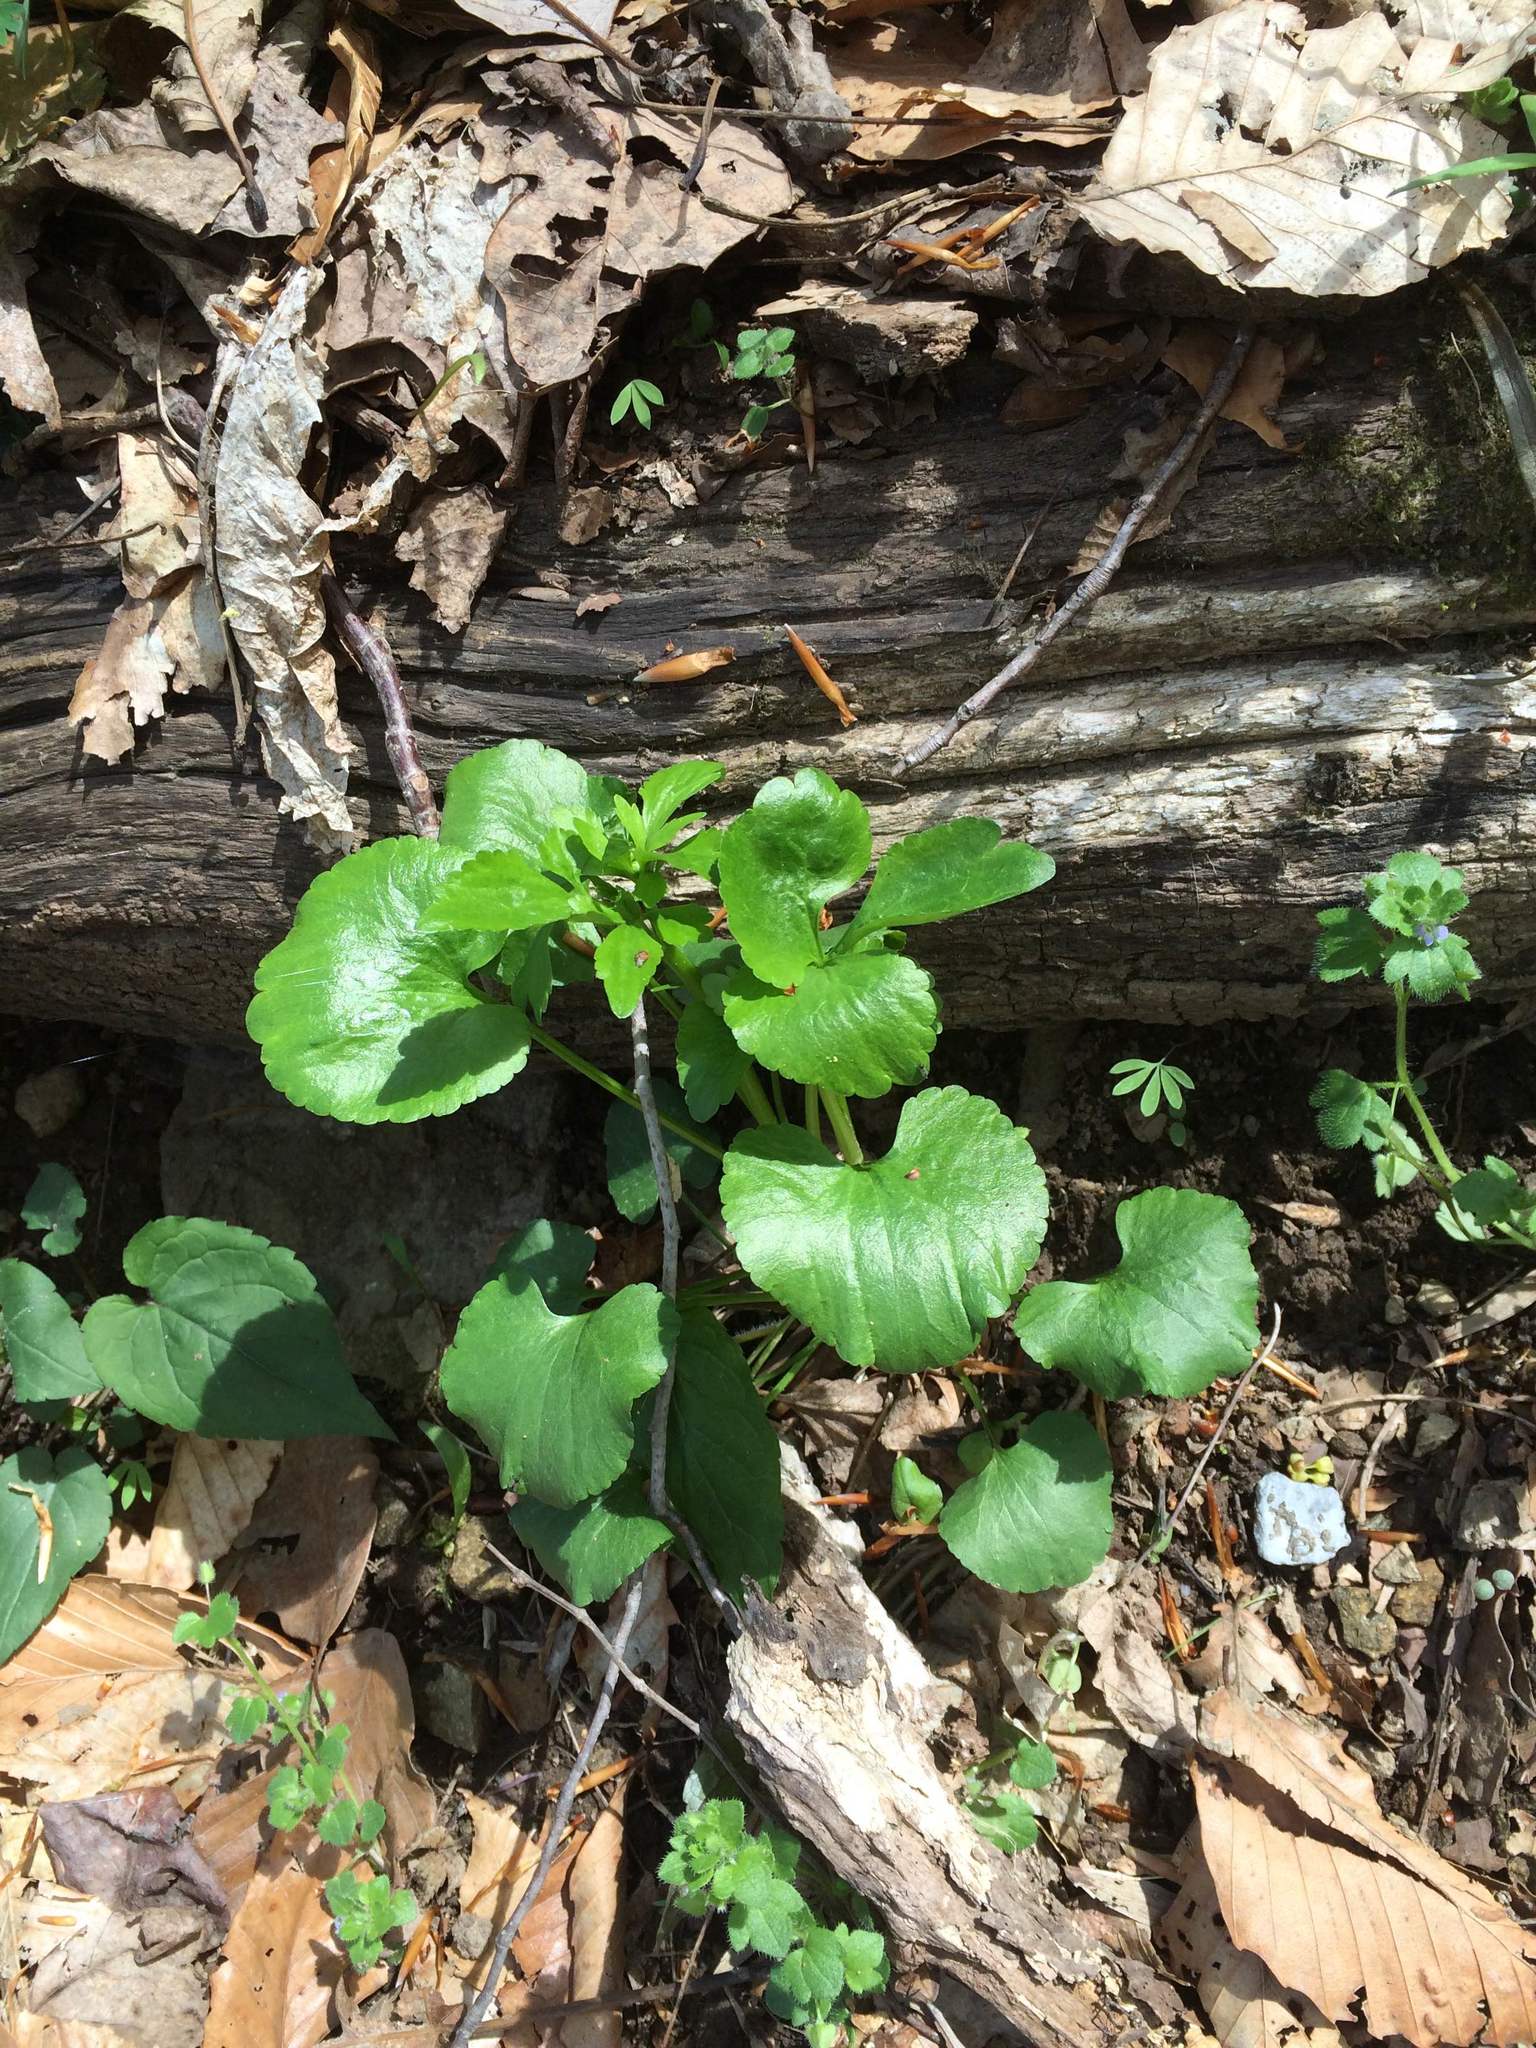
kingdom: Plantae
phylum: Tracheophyta
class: Magnoliopsida
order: Ranunculales
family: Ranunculaceae
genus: Ranunculus
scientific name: Ranunculus abortivus
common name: Early wood buttercup
